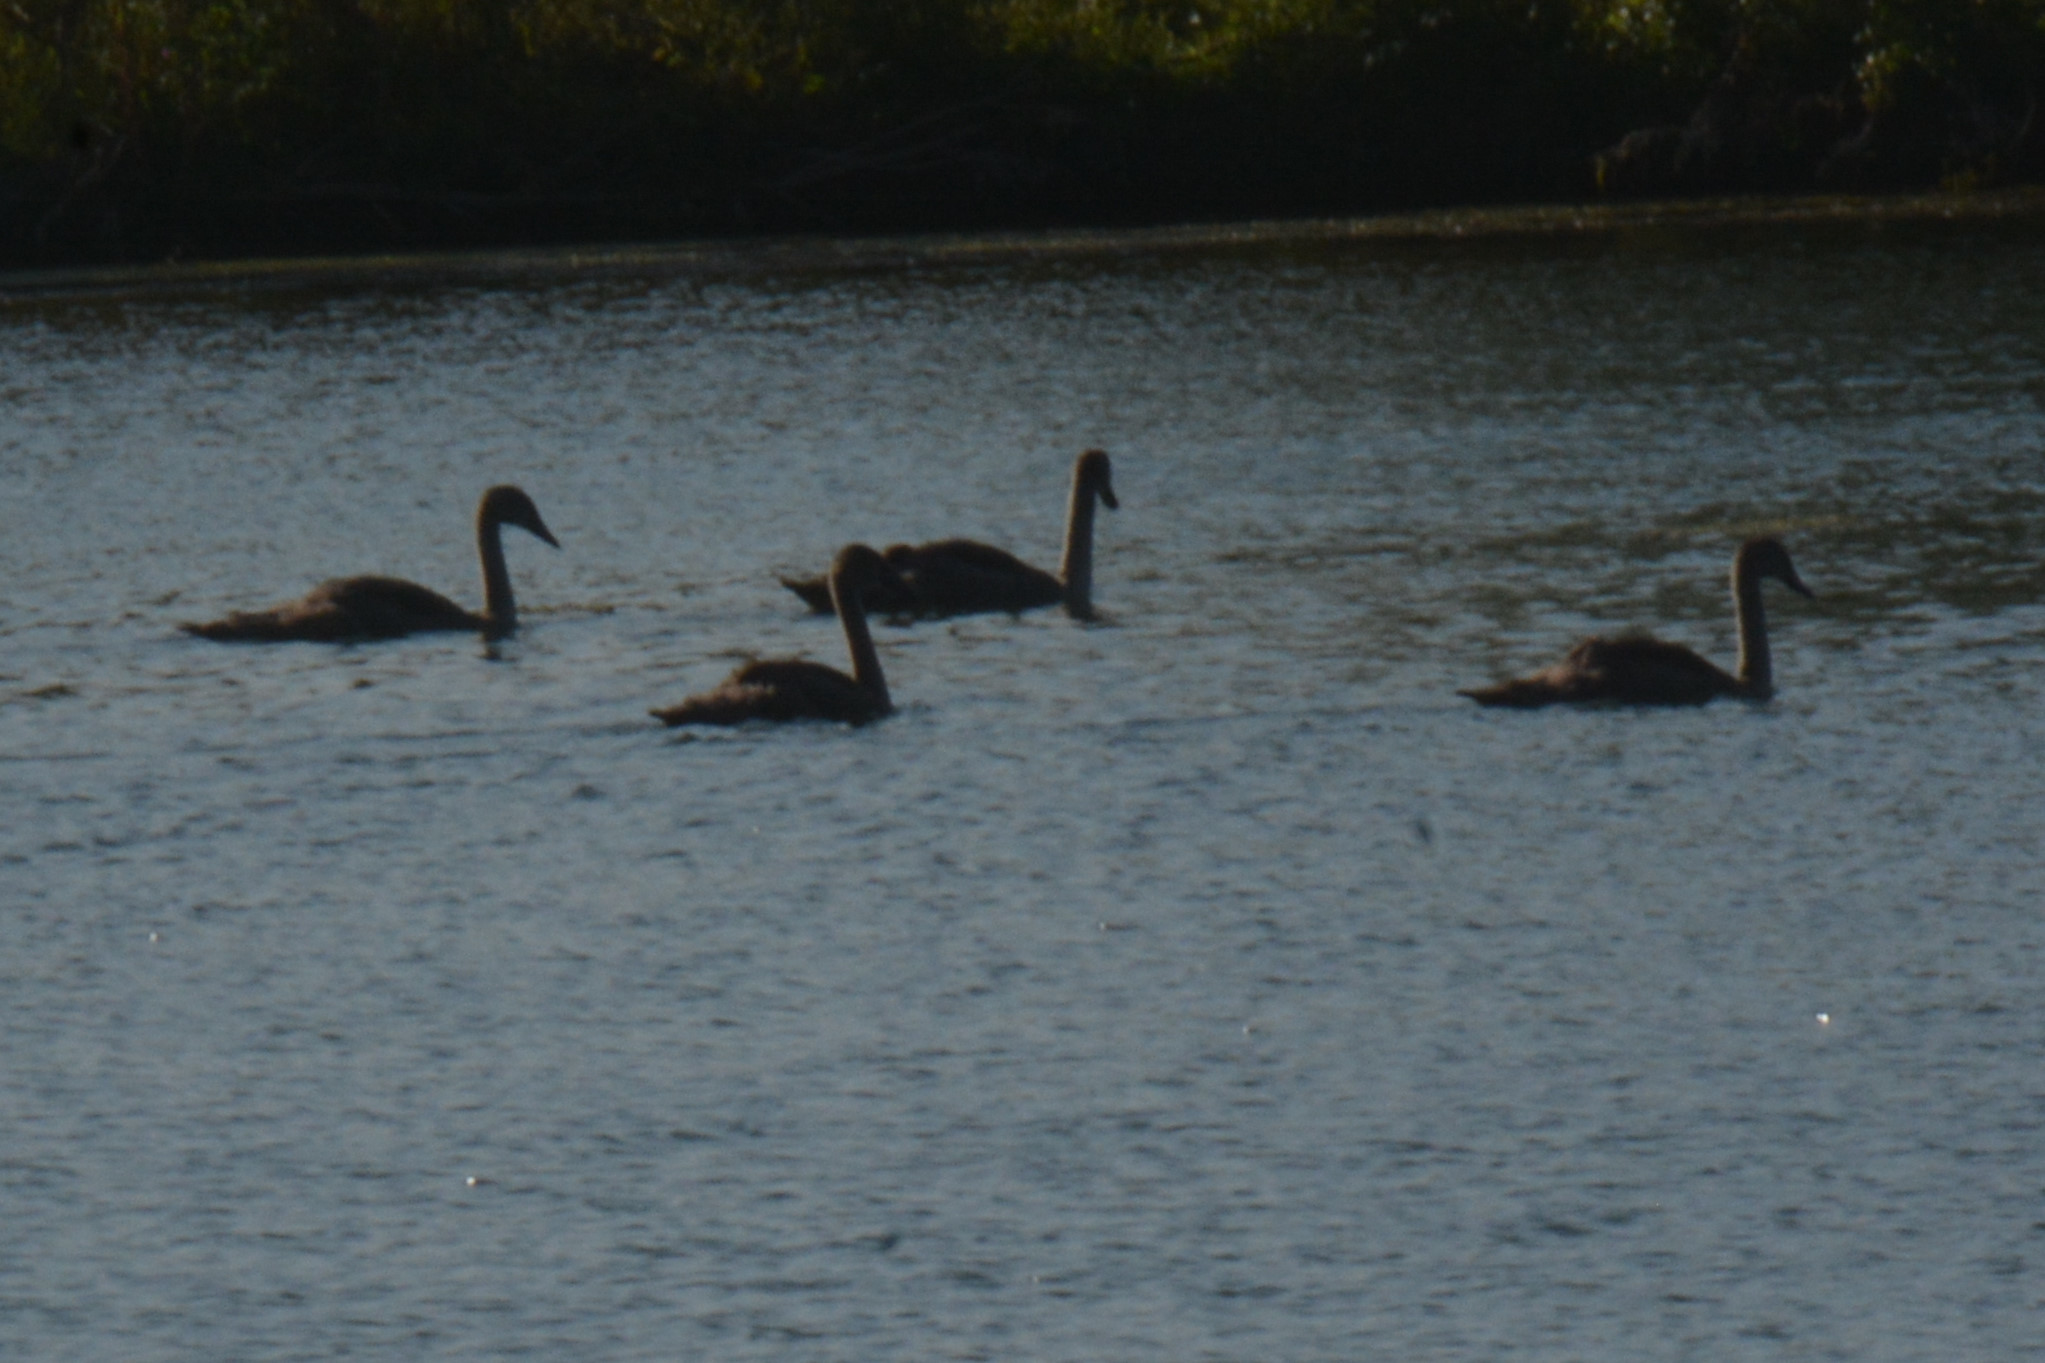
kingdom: Animalia
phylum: Chordata
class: Aves
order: Anseriformes
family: Anatidae
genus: Cygnus
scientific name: Cygnus olor
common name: Mute swan
